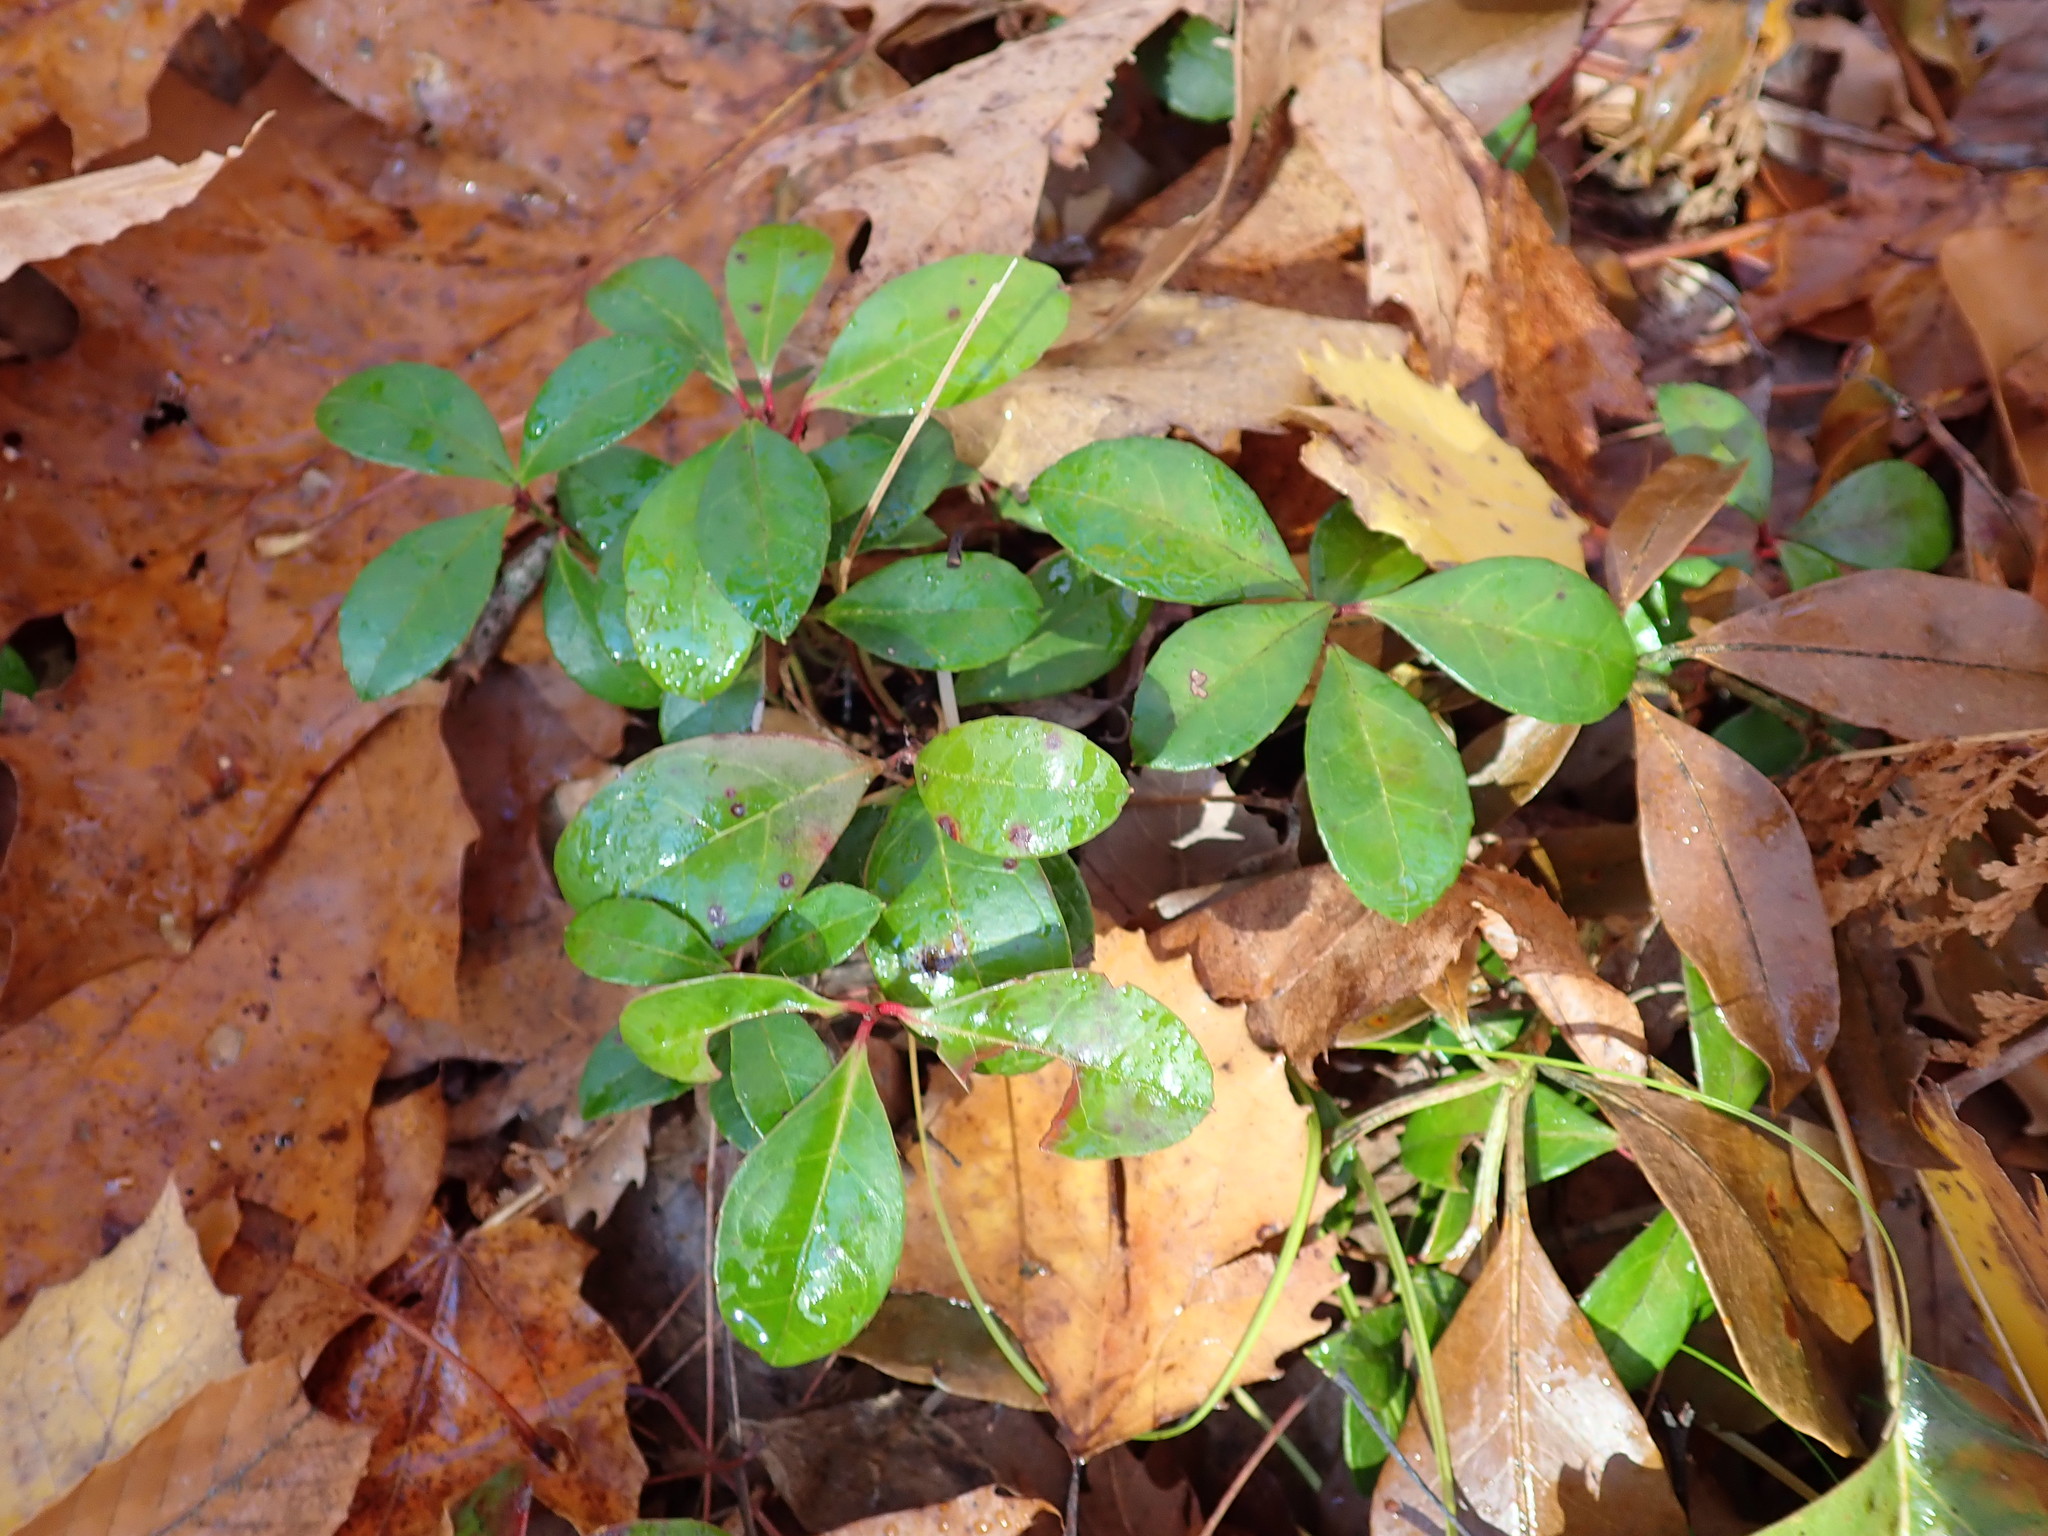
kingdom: Plantae
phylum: Tracheophyta
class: Magnoliopsida
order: Ericales
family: Ericaceae
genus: Gaultheria
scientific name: Gaultheria procumbens
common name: Checkerberry
